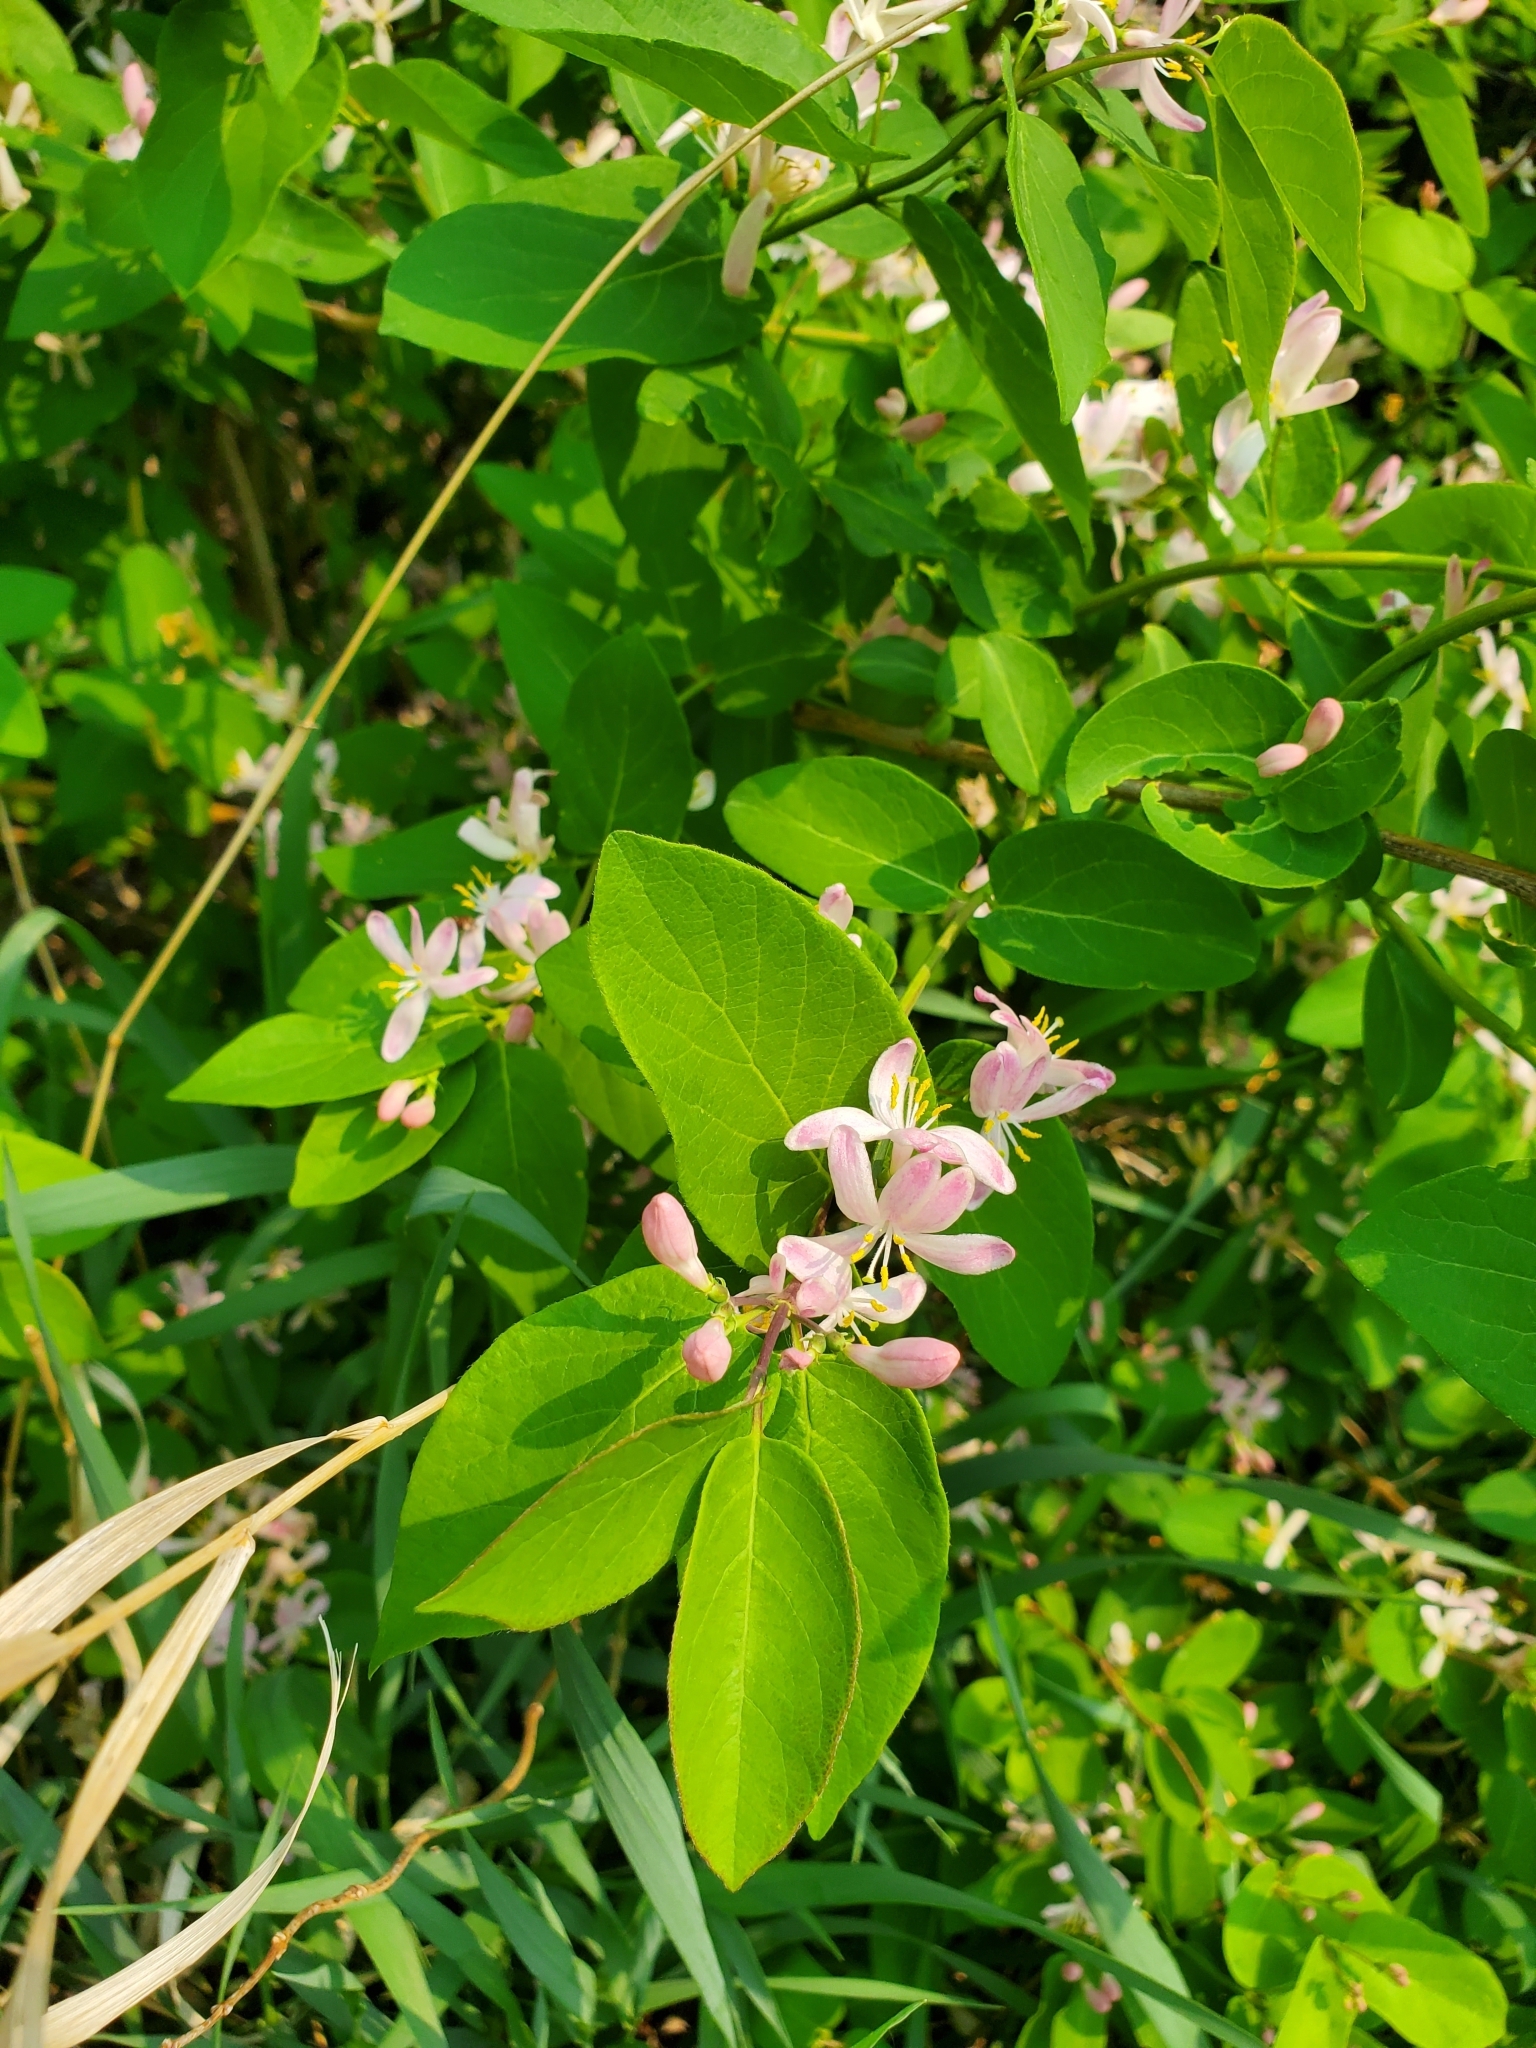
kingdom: Plantae
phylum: Tracheophyta
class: Magnoliopsida
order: Dipsacales
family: Caprifoliaceae
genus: Lonicera
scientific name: Lonicera tatarica
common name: Tatarian honeysuckle
